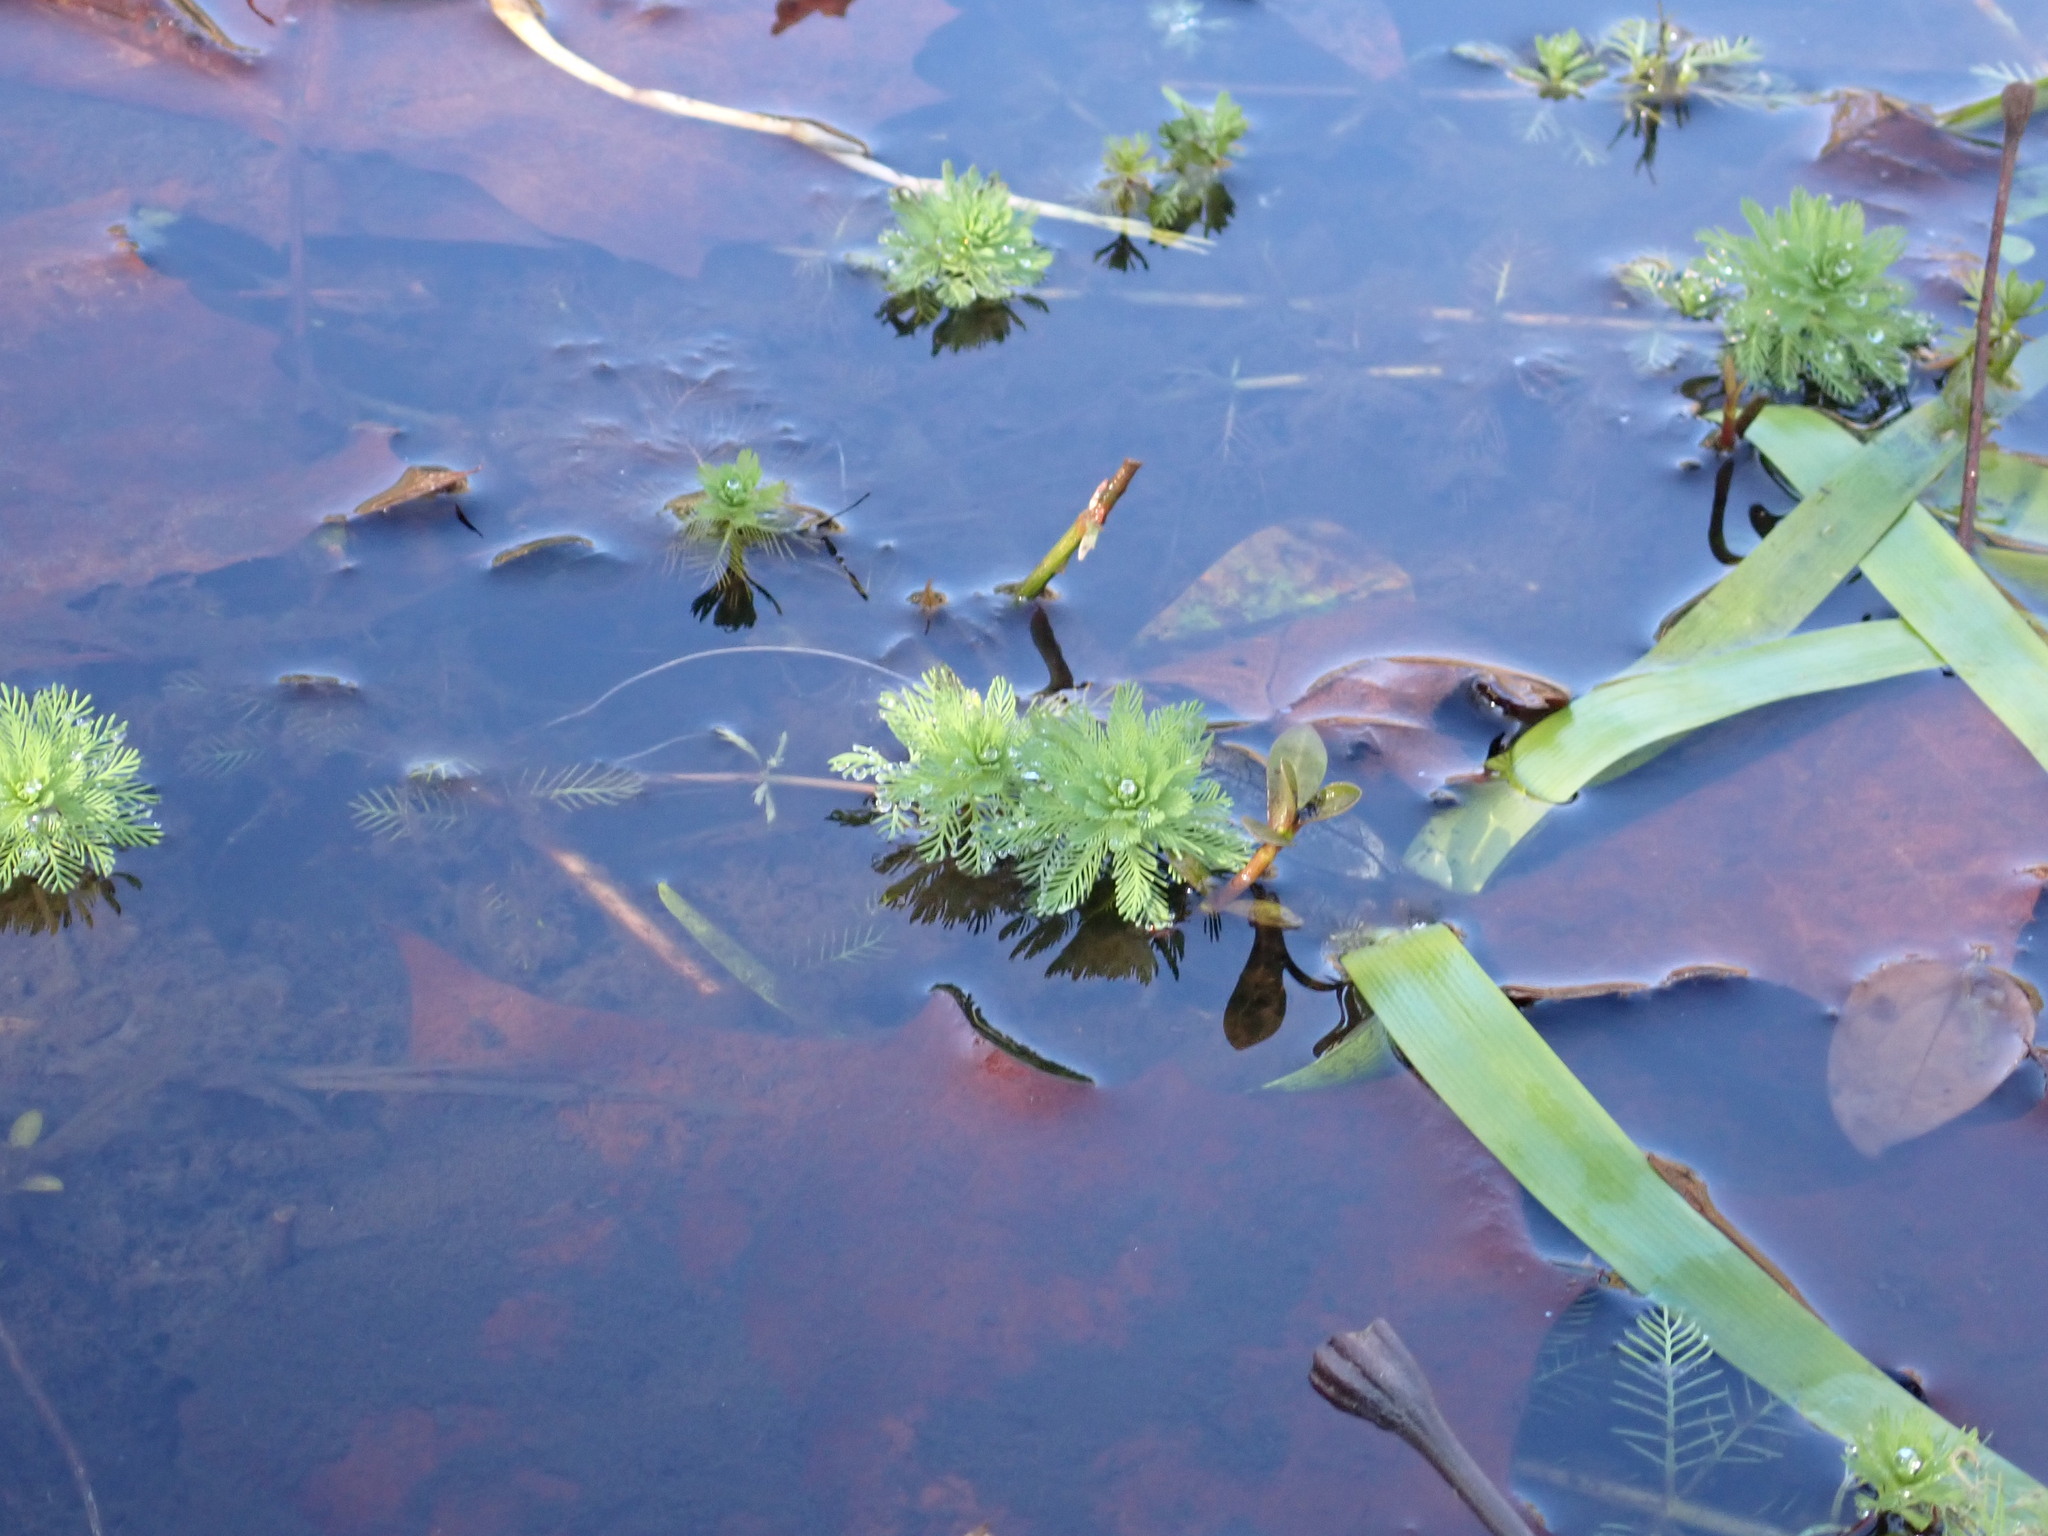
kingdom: Plantae
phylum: Tracheophyta
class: Magnoliopsida
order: Saxifragales
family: Haloragaceae
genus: Myriophyllum
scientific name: Myriophyllum aquaticum
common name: Parrot's feather
